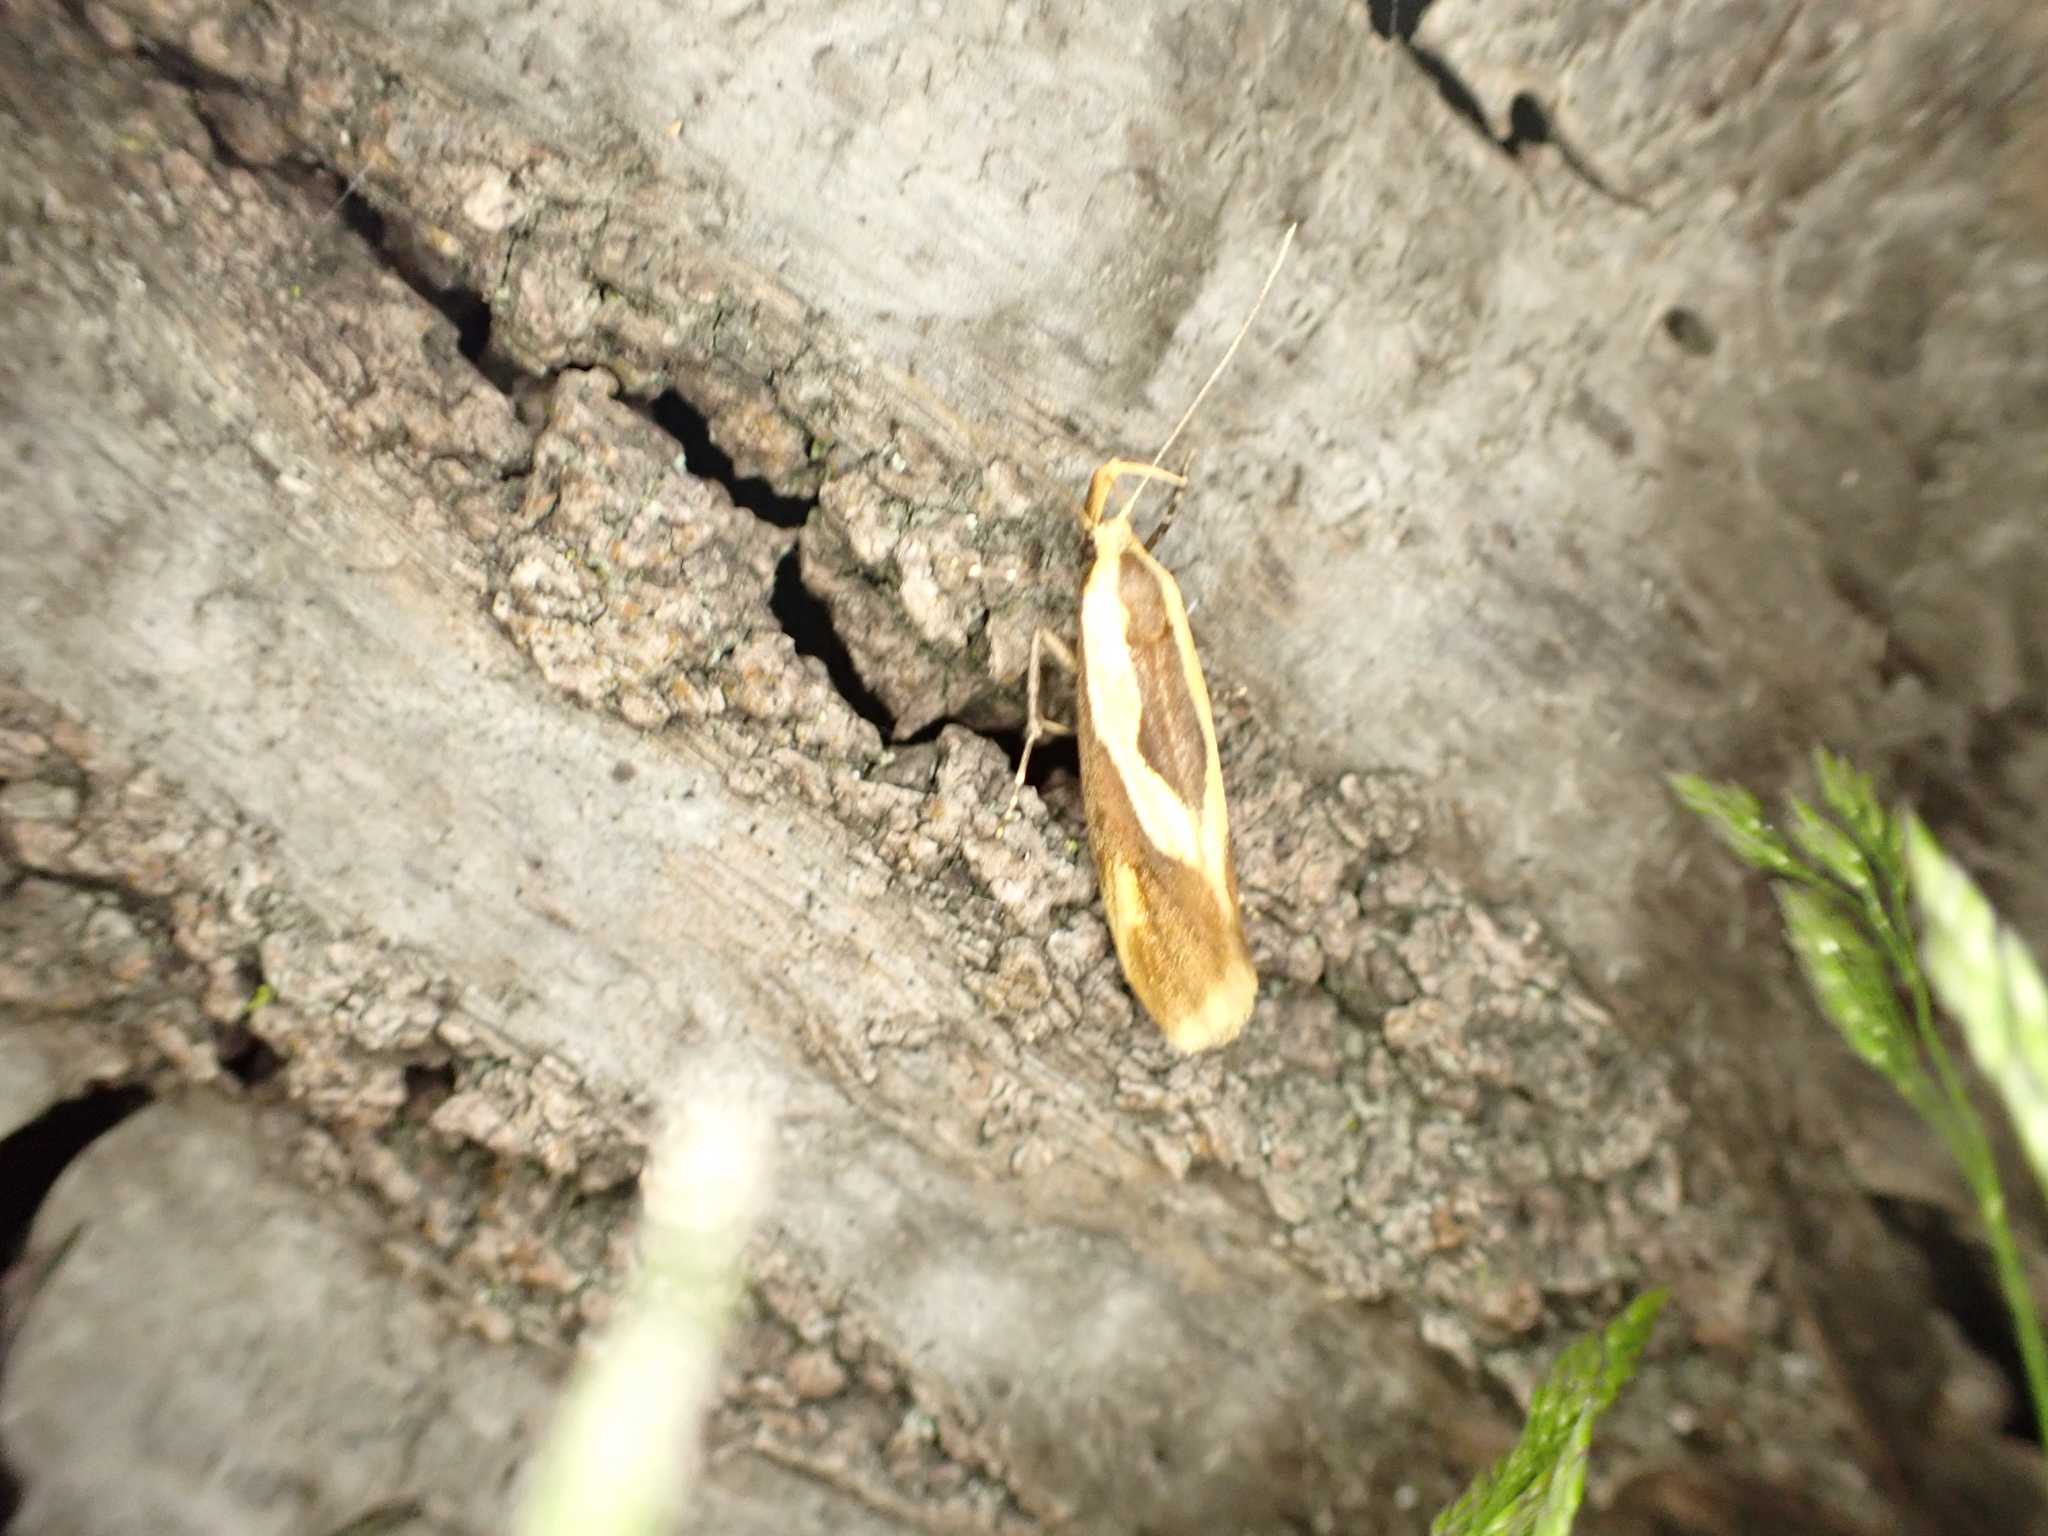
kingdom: Animalia
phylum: Arthropoda
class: Insecta
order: Lepidoptera
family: Oecophoridae
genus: Harpella
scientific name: Harpella forficella
